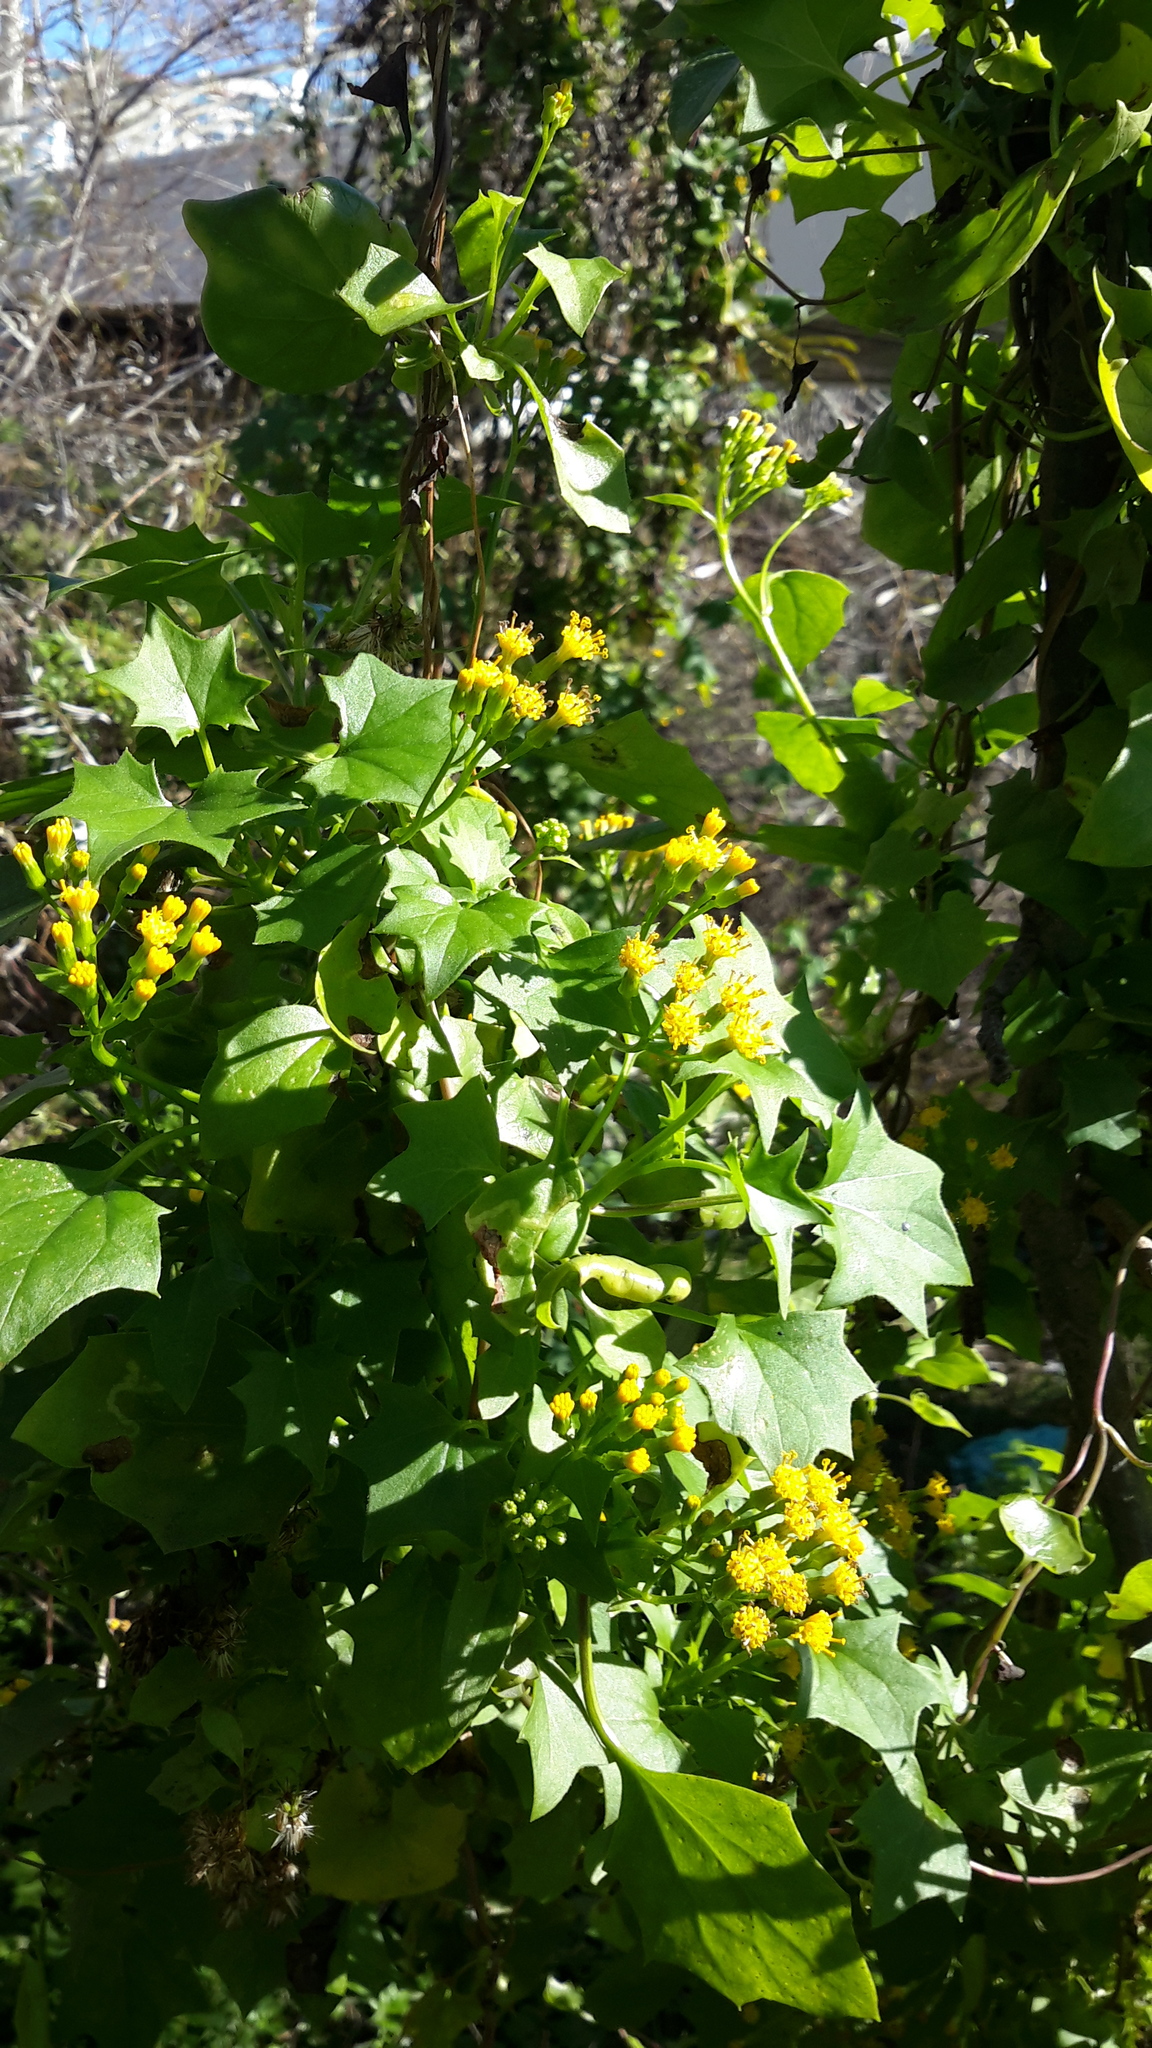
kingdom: Plantae
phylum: Tracheophyta
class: Magnoliopsida
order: Asterales
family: Asteraceae
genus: Delairea
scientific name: Delairea odorata
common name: Cape-ivy
